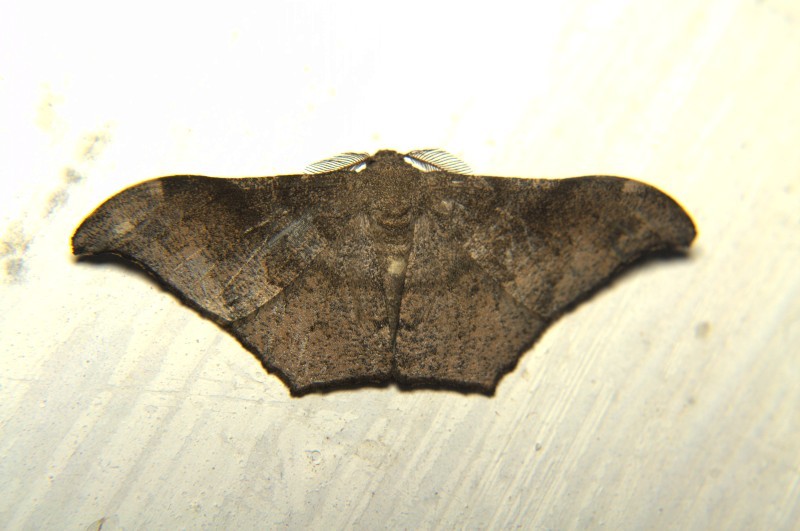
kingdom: Animalia
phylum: Arthropoda
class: Insecta
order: Lepidoptera
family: Geometridae
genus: Hyposidra
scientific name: Hyposidra talaca
